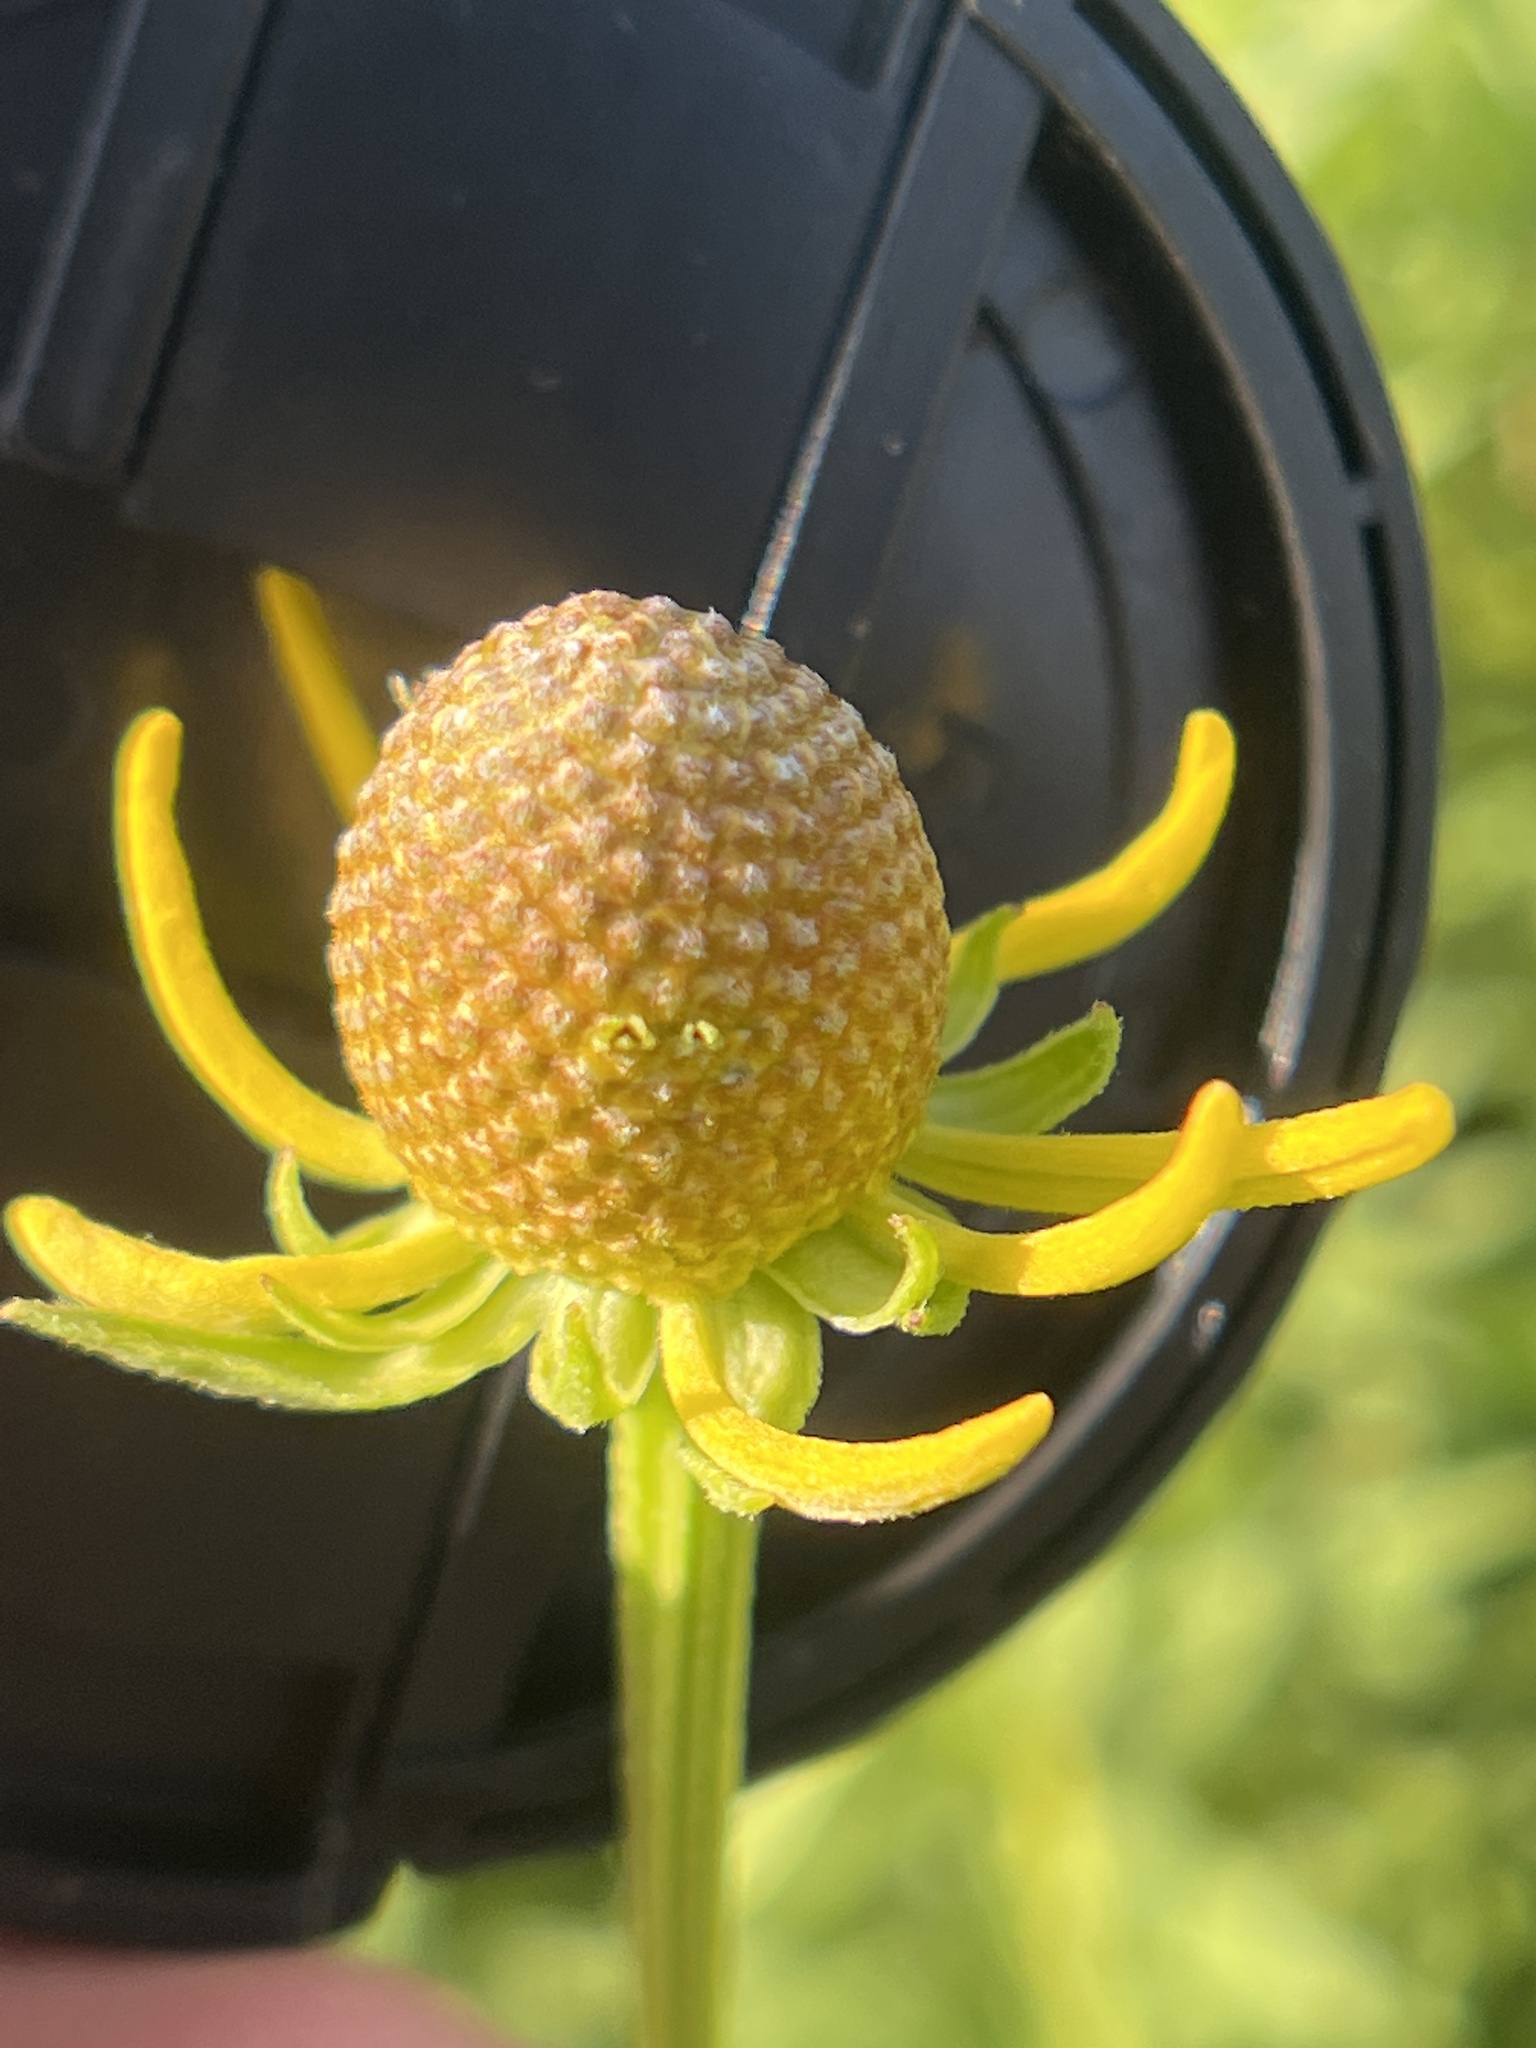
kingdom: Plantae
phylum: Tracheophyta
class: Magnoliopsida
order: Asterales
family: Asteraceae
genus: Ratibida
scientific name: Ratibida pinnata
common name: Drooping prairie-coneflower
